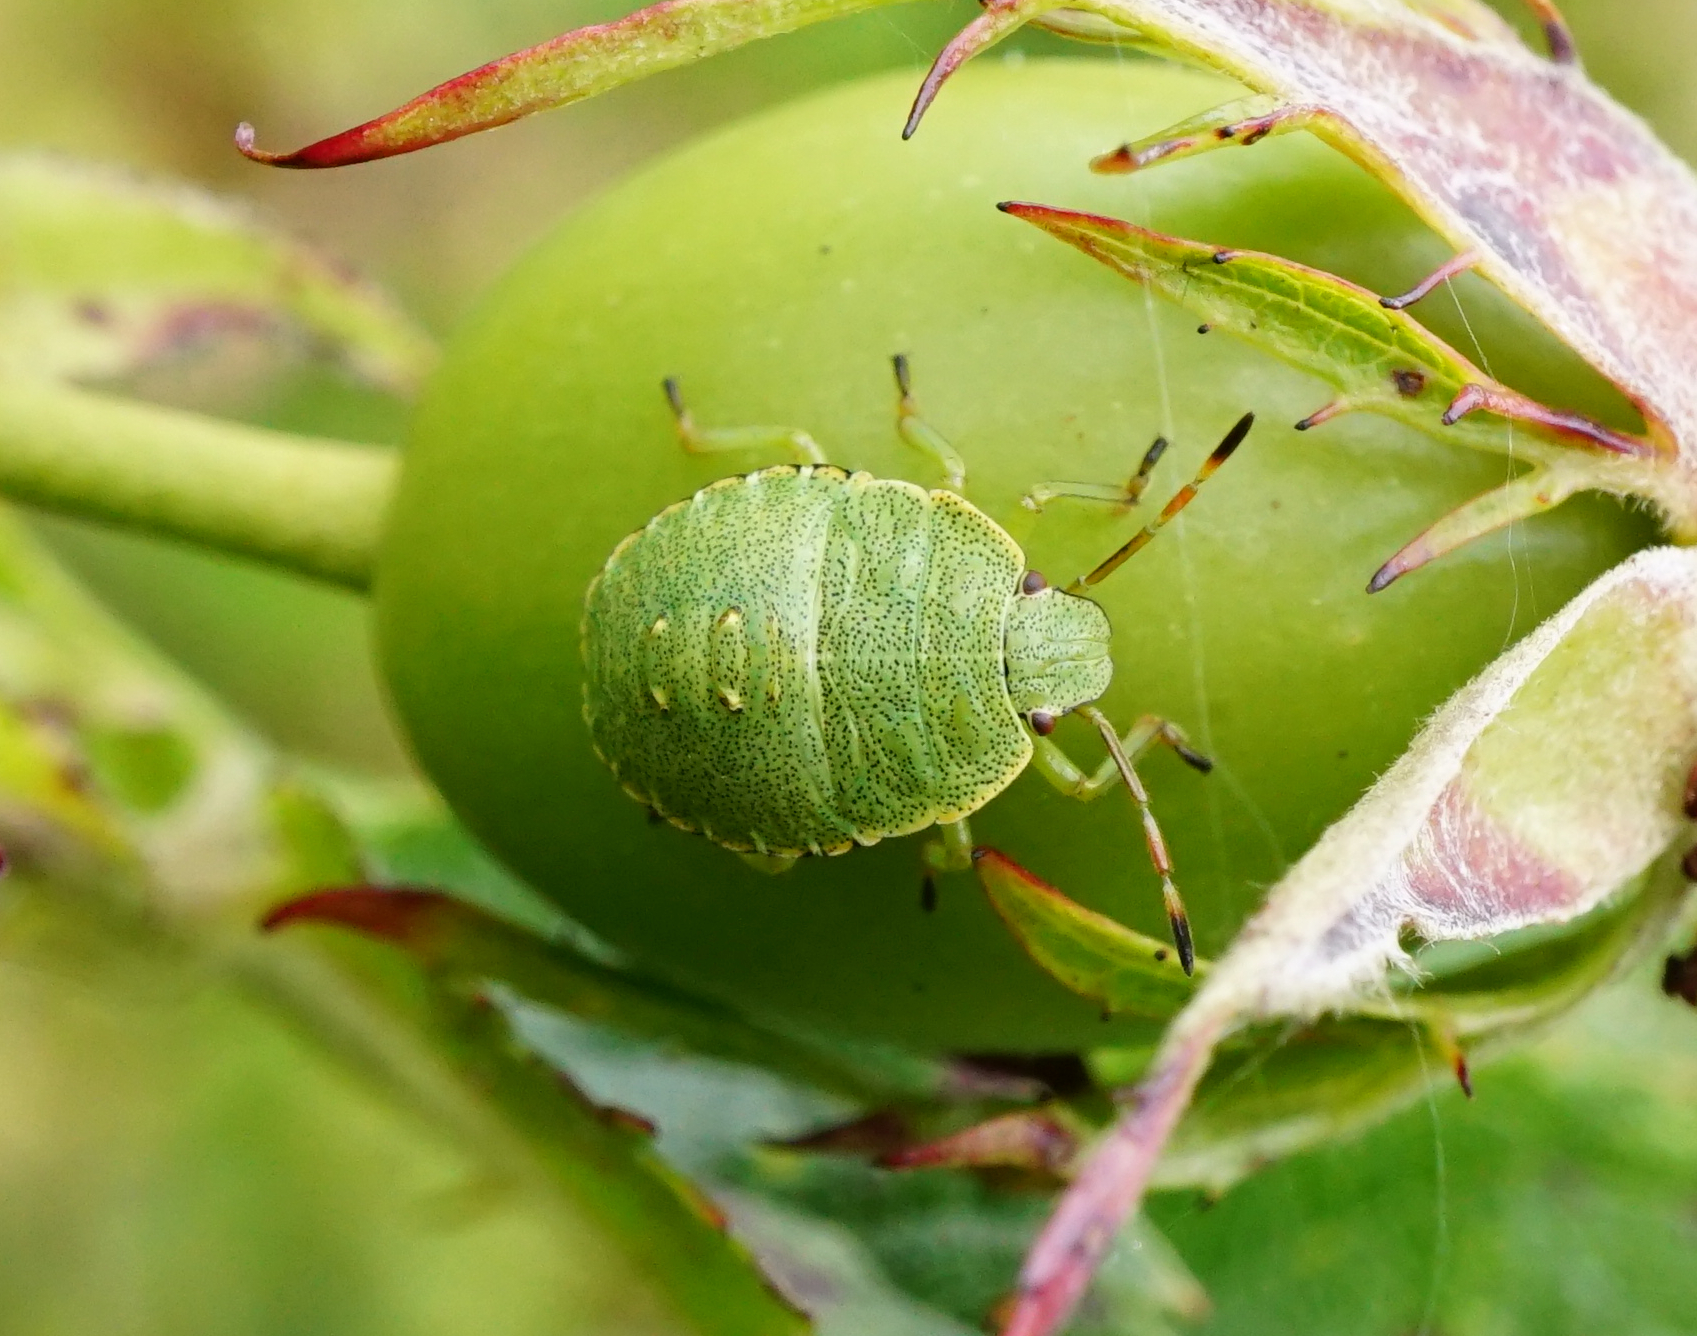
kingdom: Animalia
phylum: Arthropoda
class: Insecta
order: Hemiptera
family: Pentatomidae
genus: Palomena
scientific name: Palomena prasina
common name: Green shieldbug
